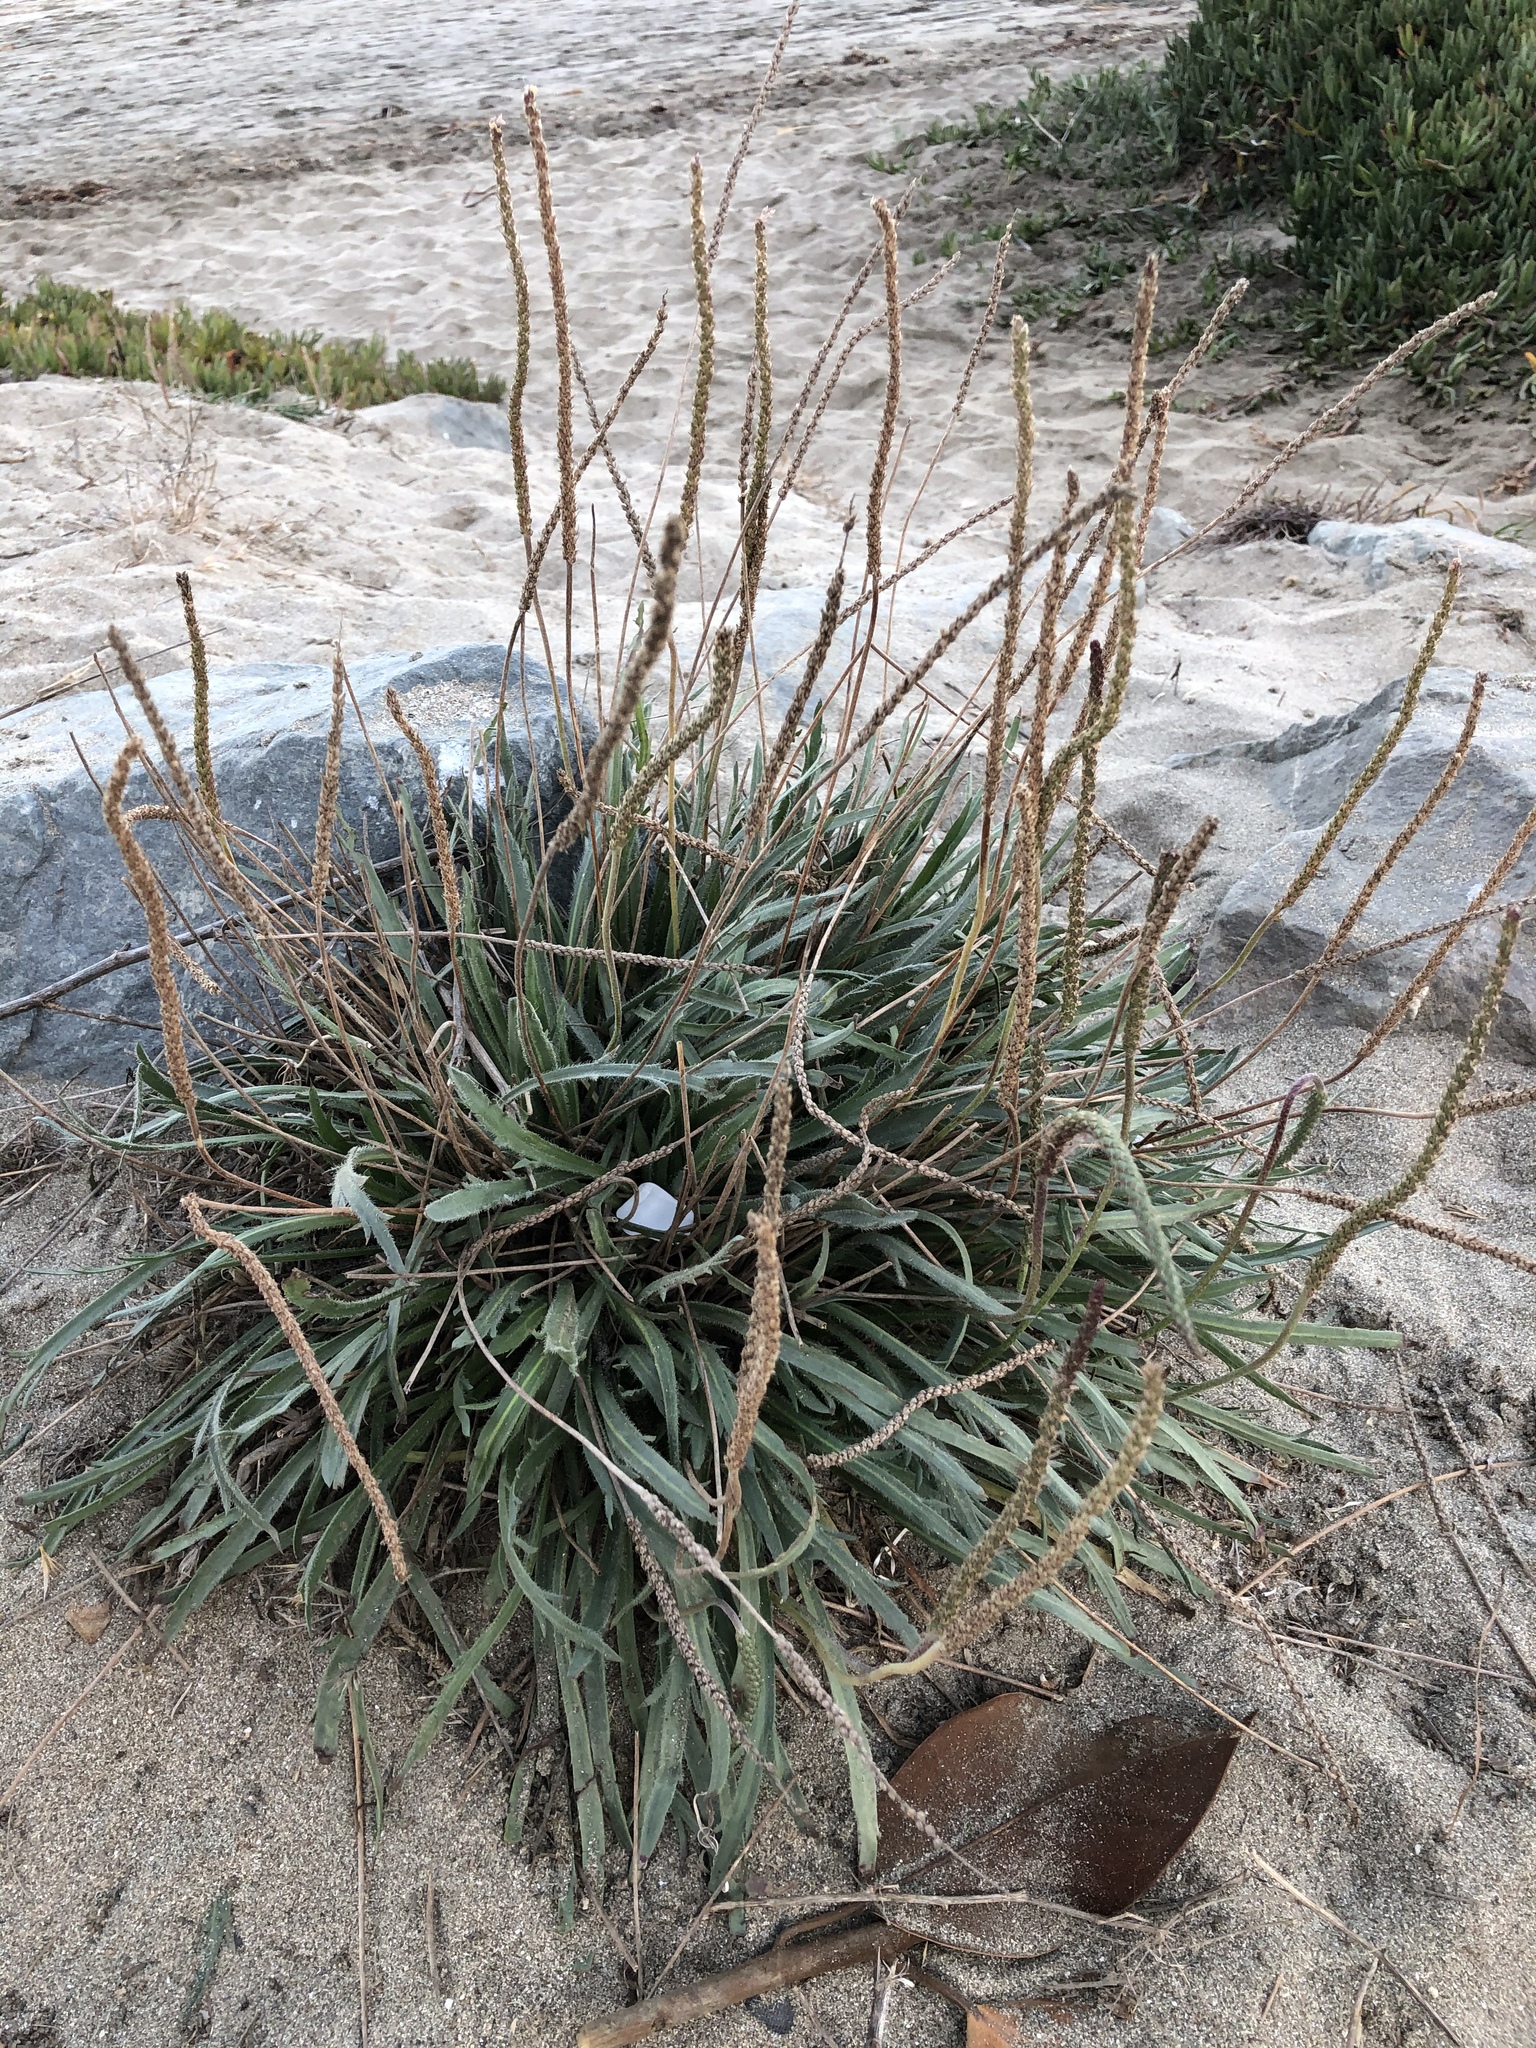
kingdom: Plantae
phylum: Tracheophyta
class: Magnoliopsida
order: Lamiales
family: Plantaginaceae
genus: Plantago
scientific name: Plantago coronopus
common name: Buck's-horn plantain
